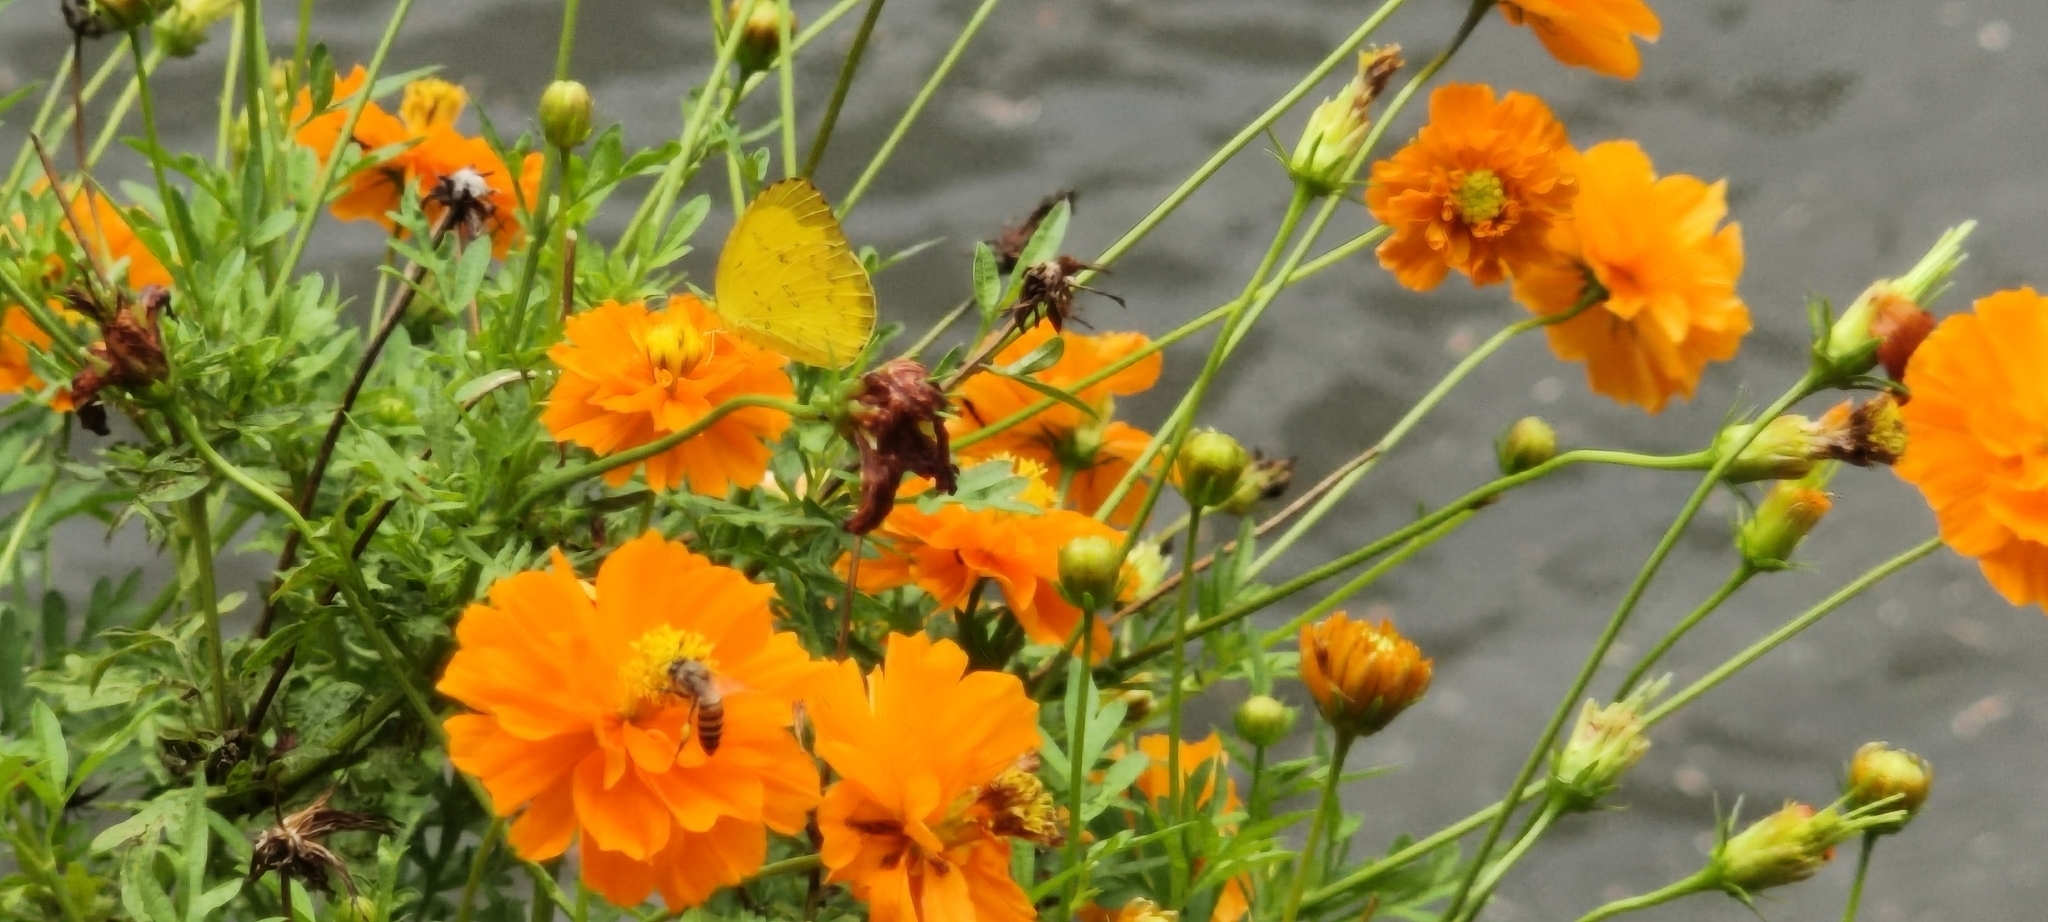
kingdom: Animalia
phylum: Arthropoda
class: Insecta
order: Hymenoptera
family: Apidae
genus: Apis
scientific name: Apis cerana
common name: Honey bee
